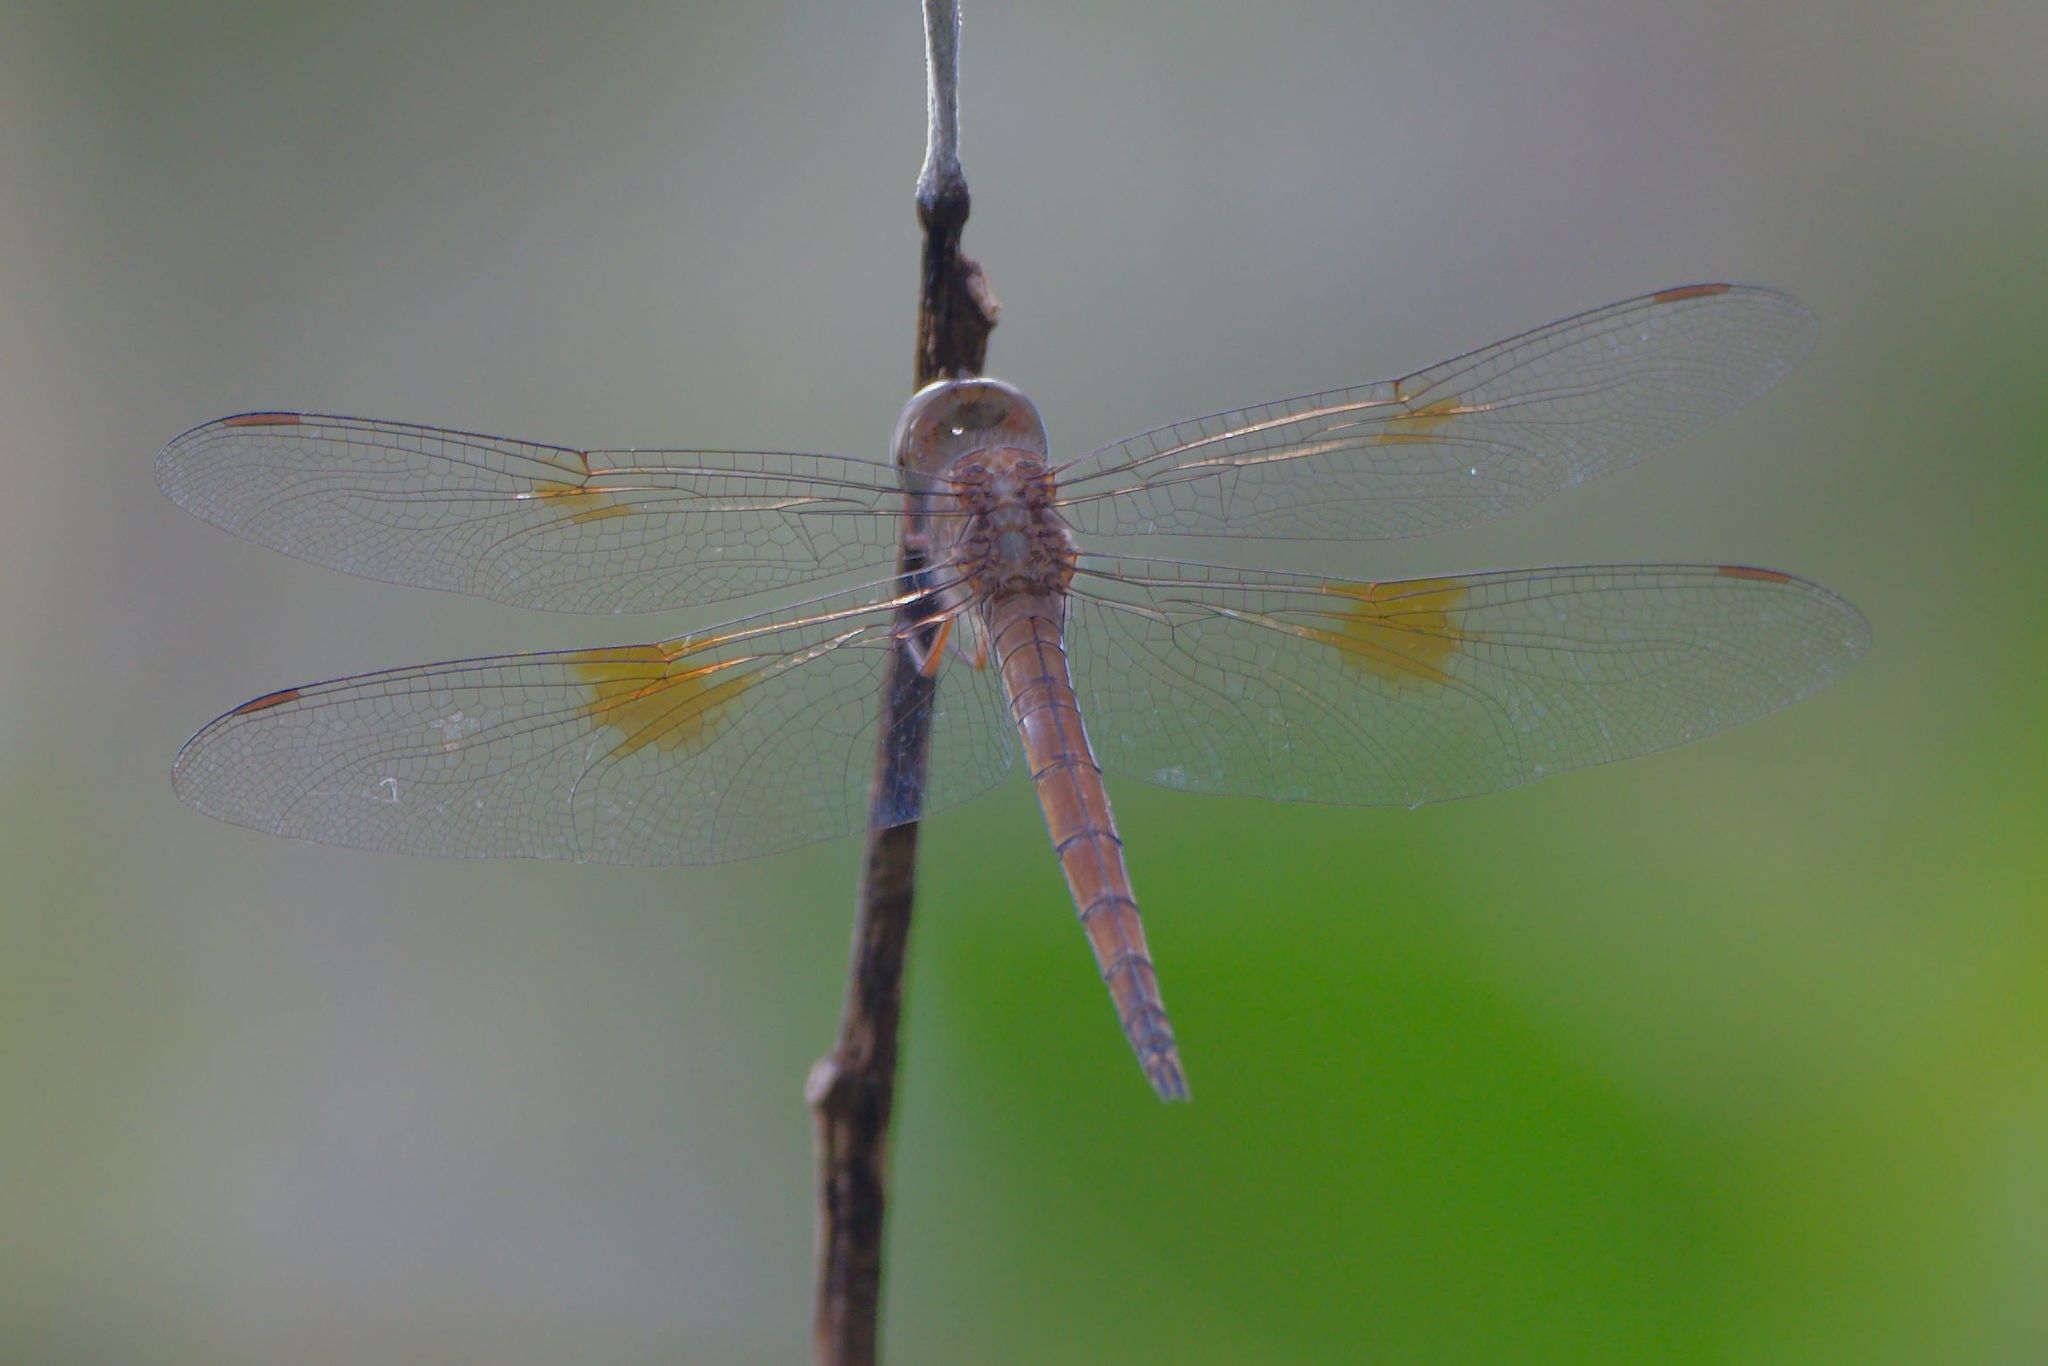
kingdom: Animalia
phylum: Arthropoda
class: Insecta
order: Odonata
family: Libellulidae
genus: Tholymis
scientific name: Tholymis citrina
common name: Evening skimmer
